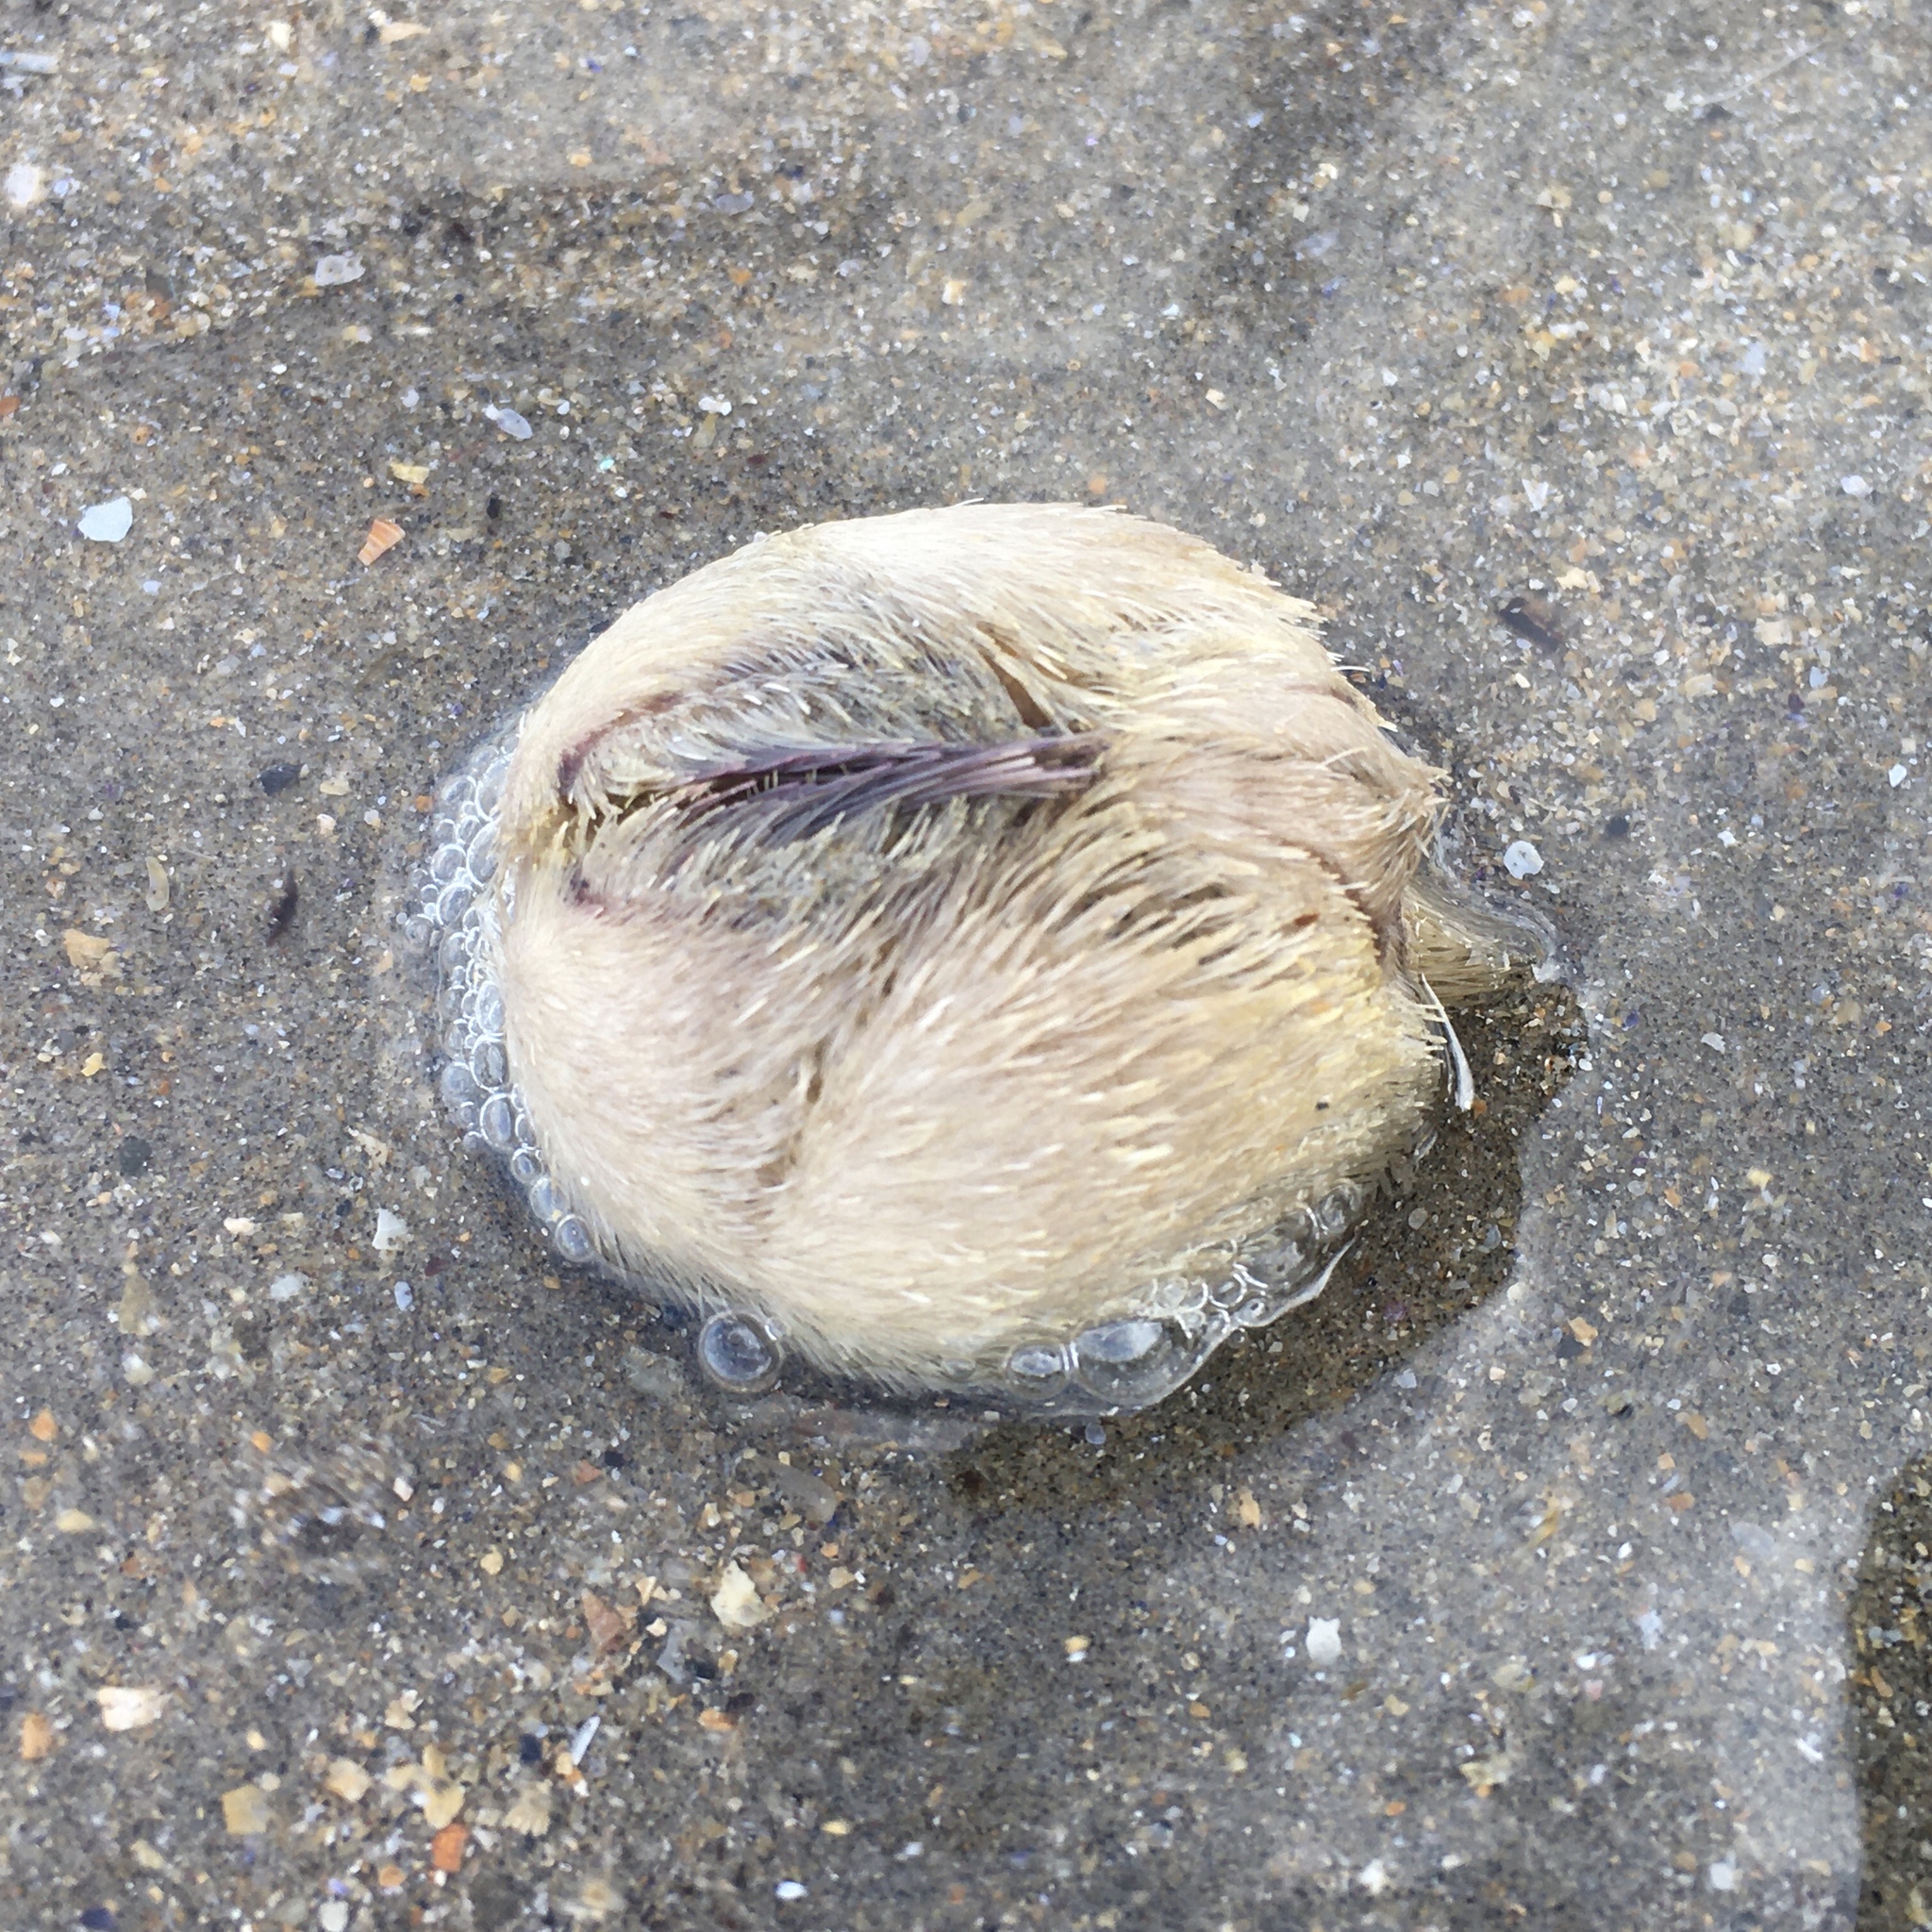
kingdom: Animalia
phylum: Echinodermata
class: Echinoidea
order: Spatangoida
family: Loveniidae
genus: Echinocardium
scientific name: Echinocardium cordatum
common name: Heart-urchin
